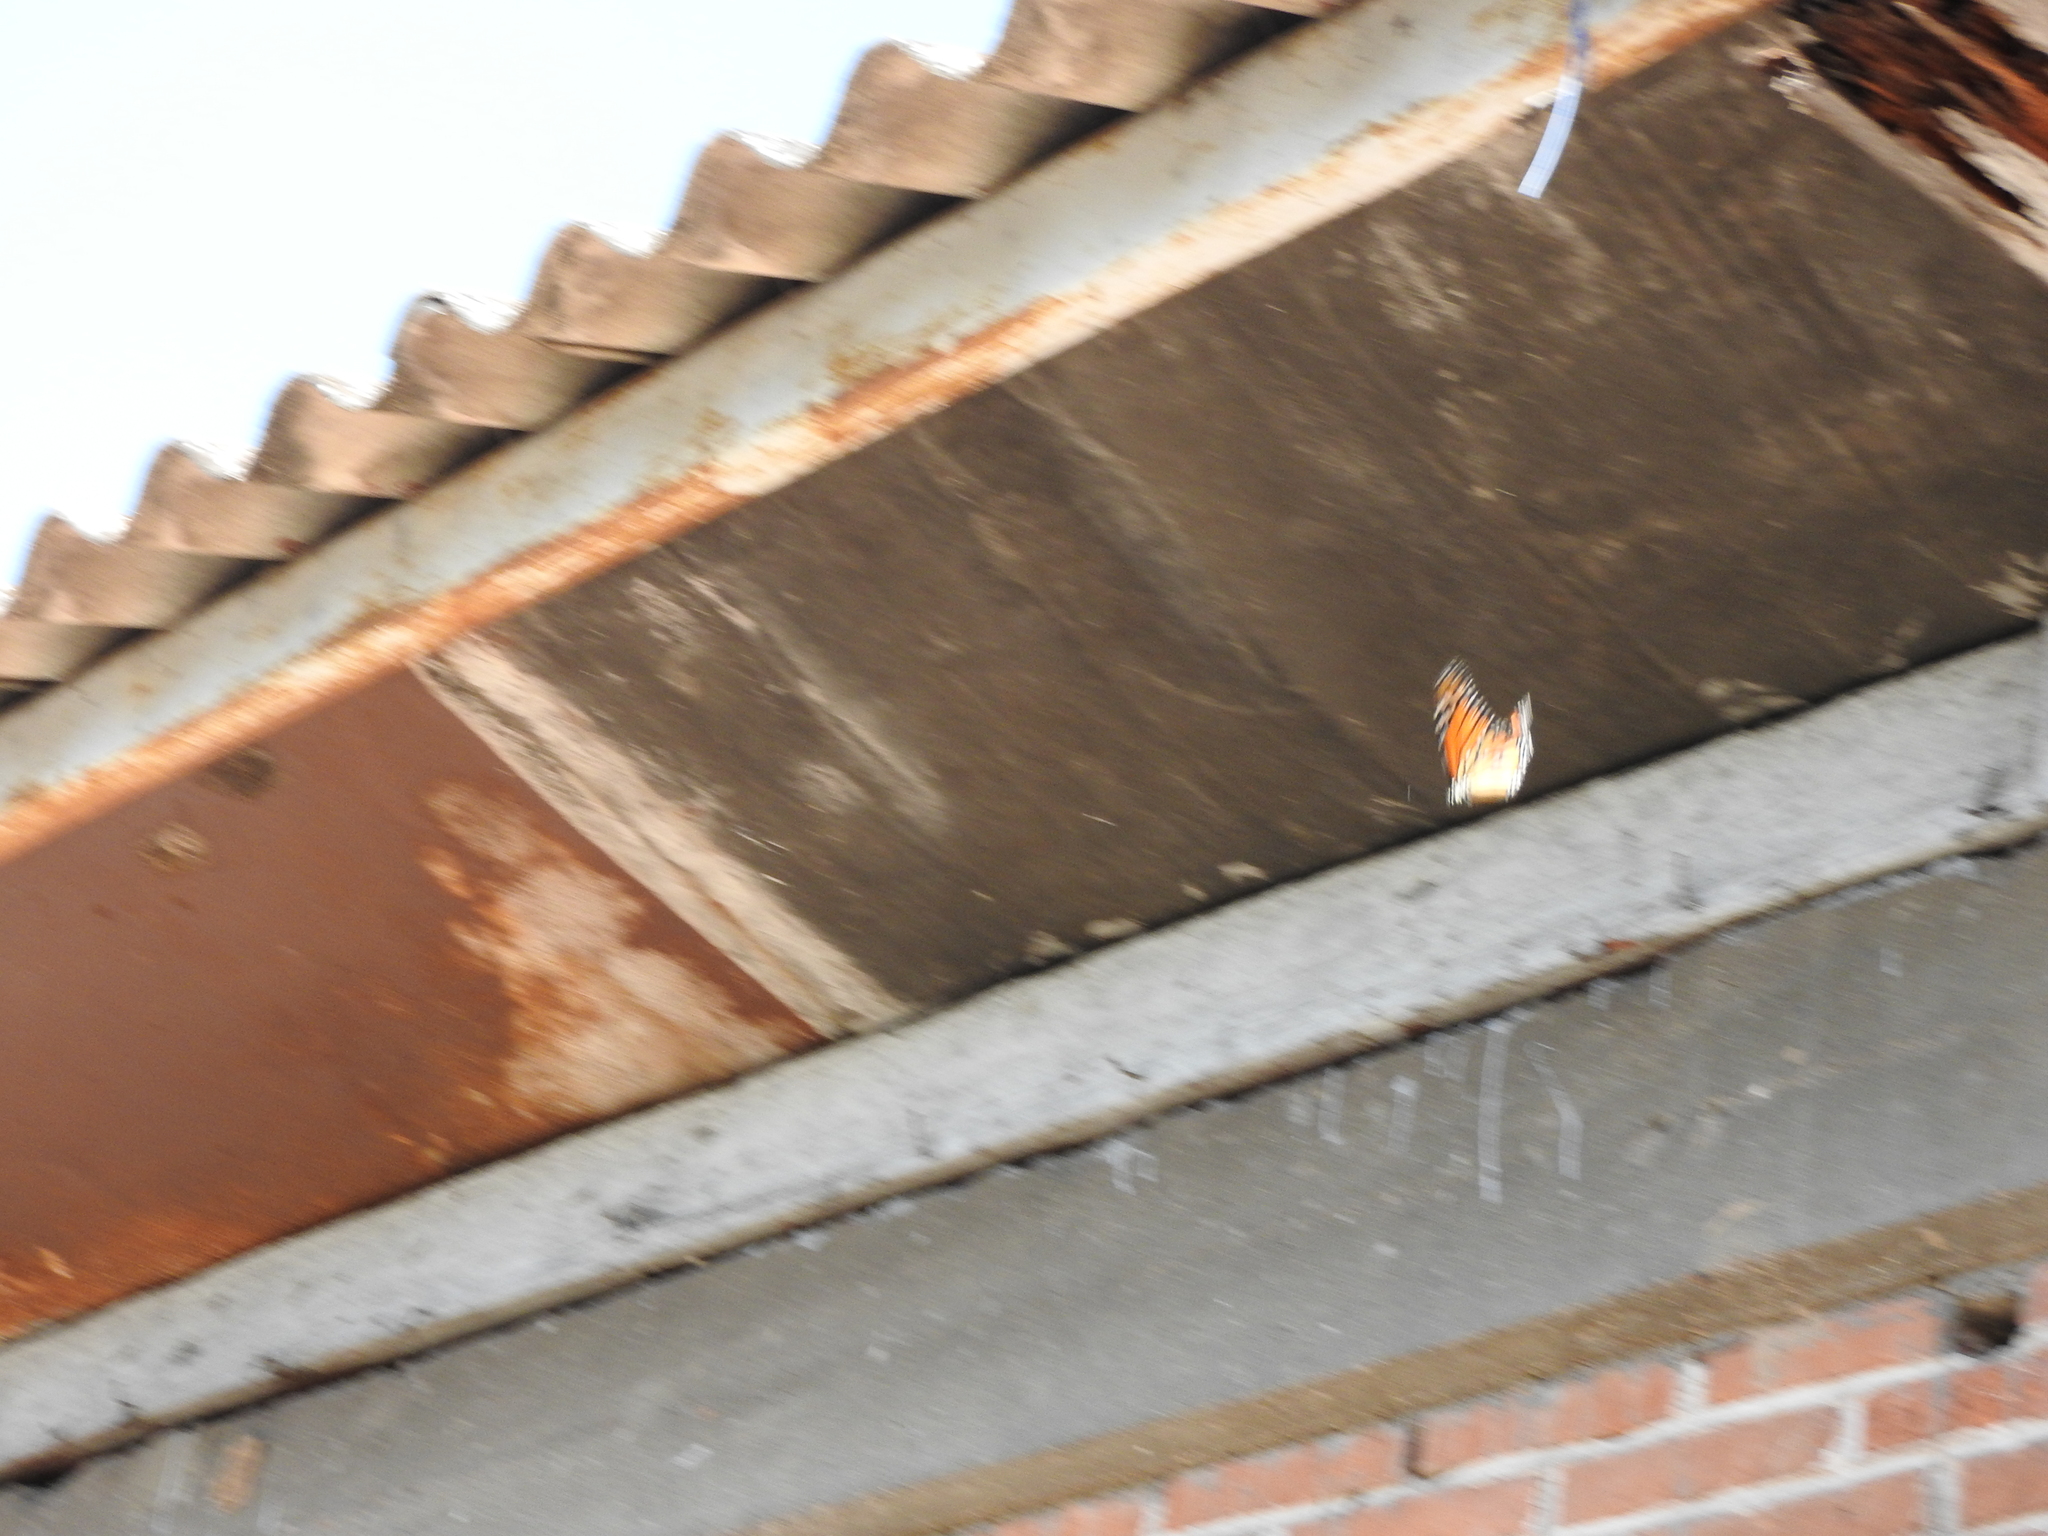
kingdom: Animalia
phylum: Arthropoda
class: Insecta
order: Lepidoptera
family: Nymphalidae
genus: Danaus
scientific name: Danaus plexippus
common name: Monarch
